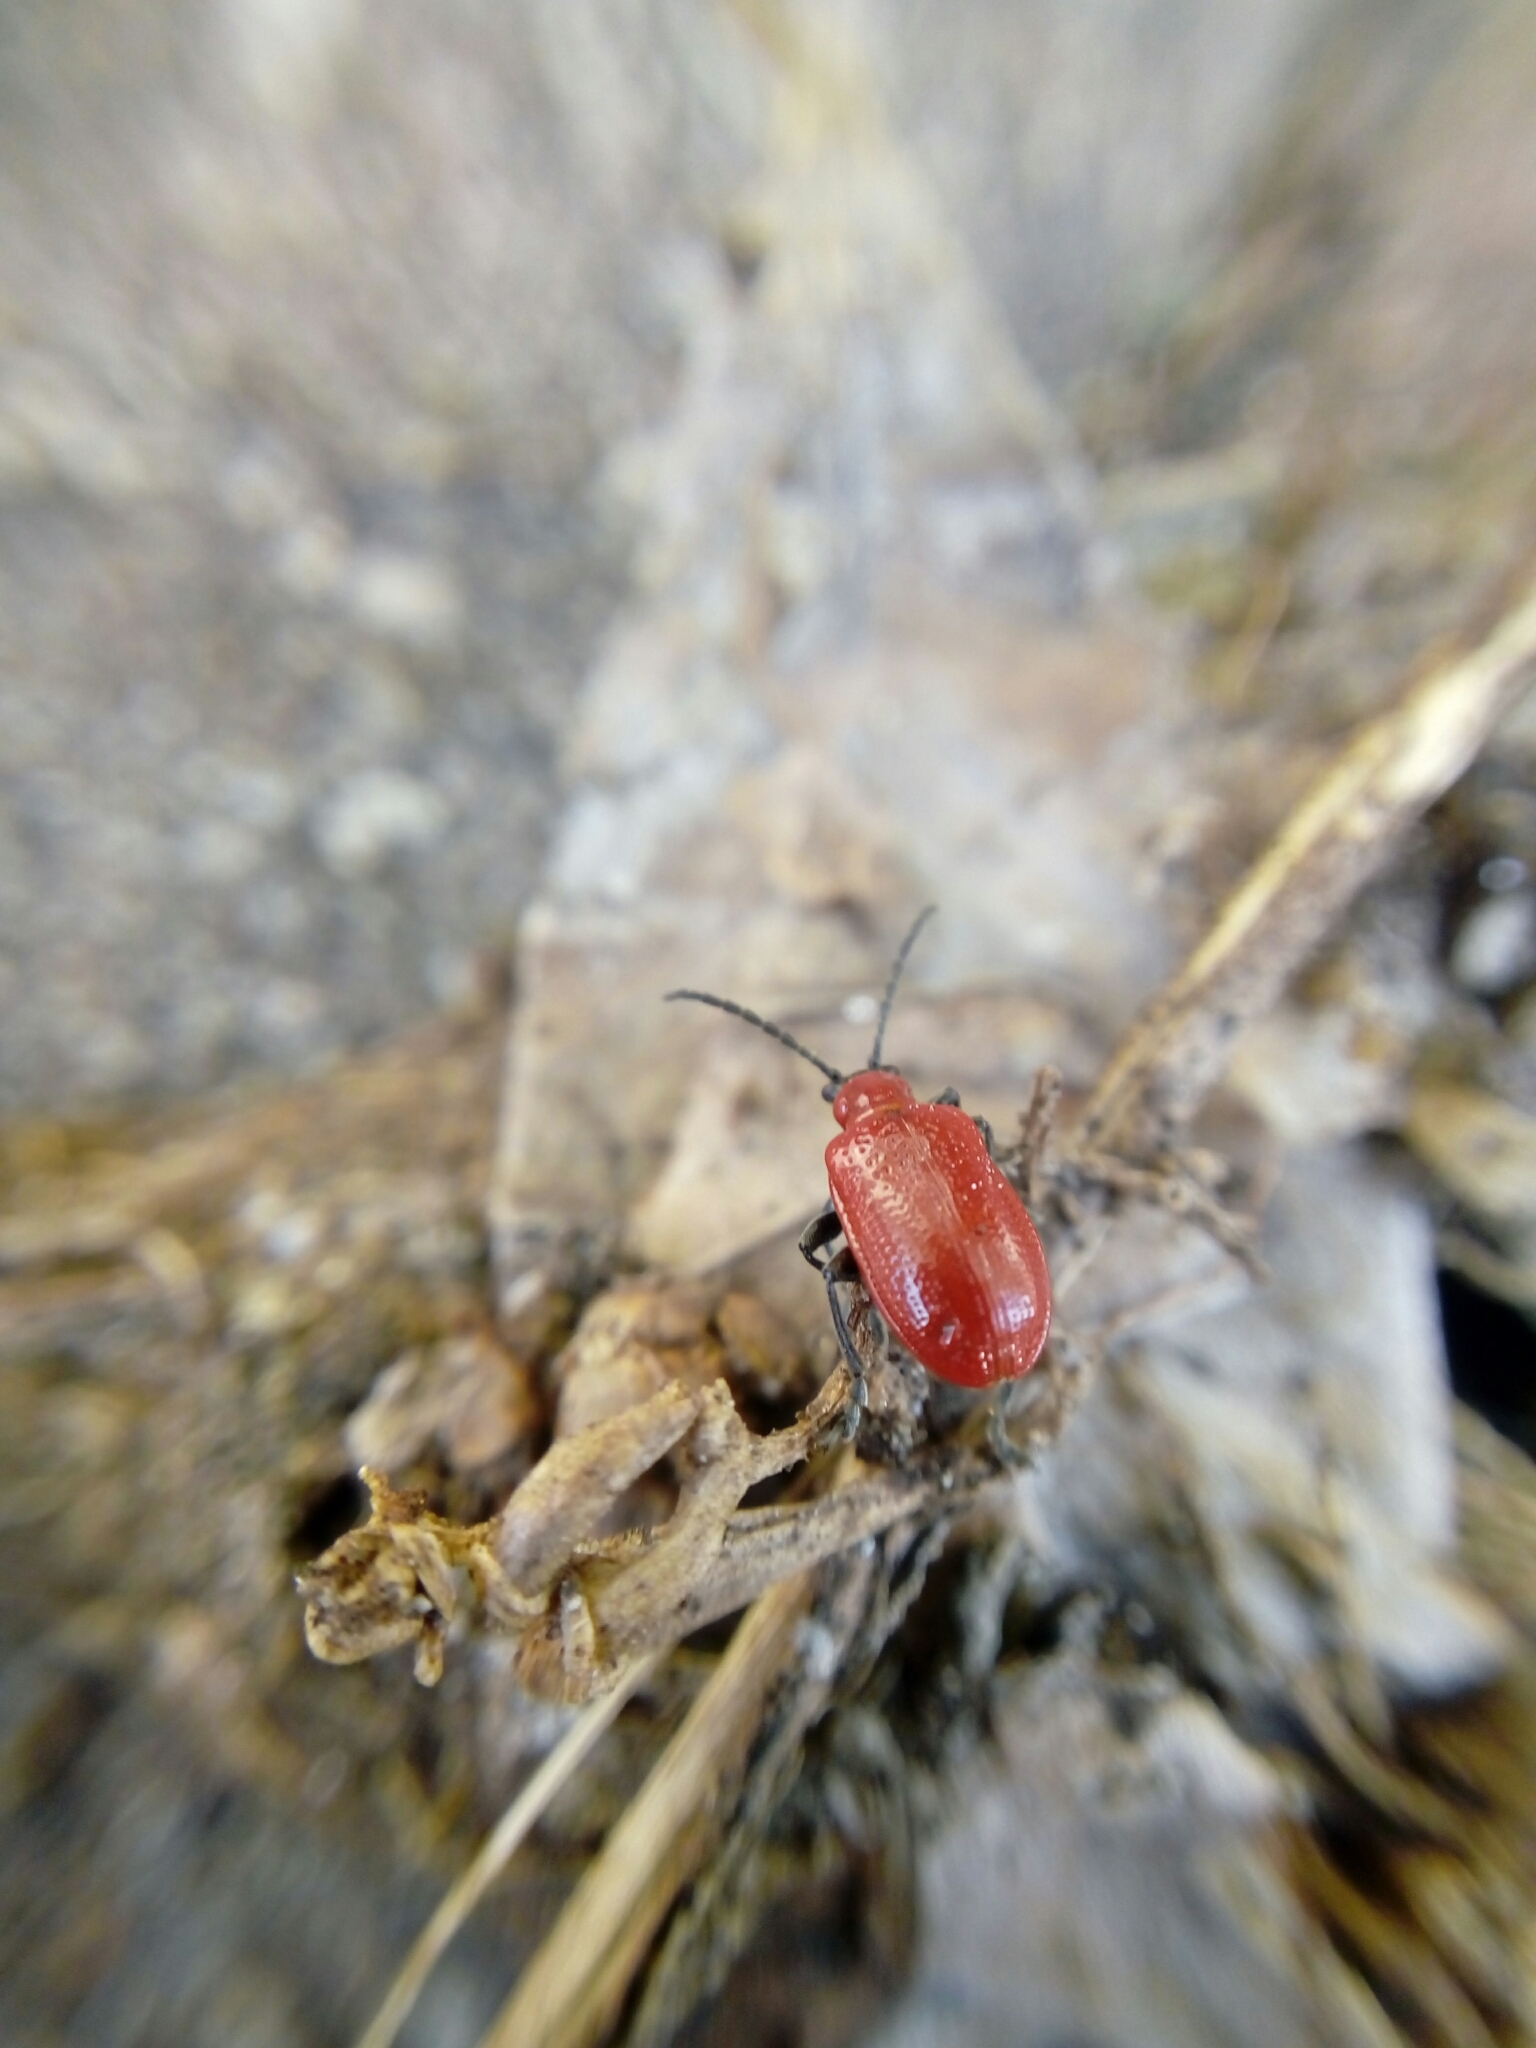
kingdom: Animalia
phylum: Arthropoda
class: Insecta
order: Coleoptera
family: Chrysomelidae
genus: Lilioceris
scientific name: Lilioceris lilii
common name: Lily beetle
